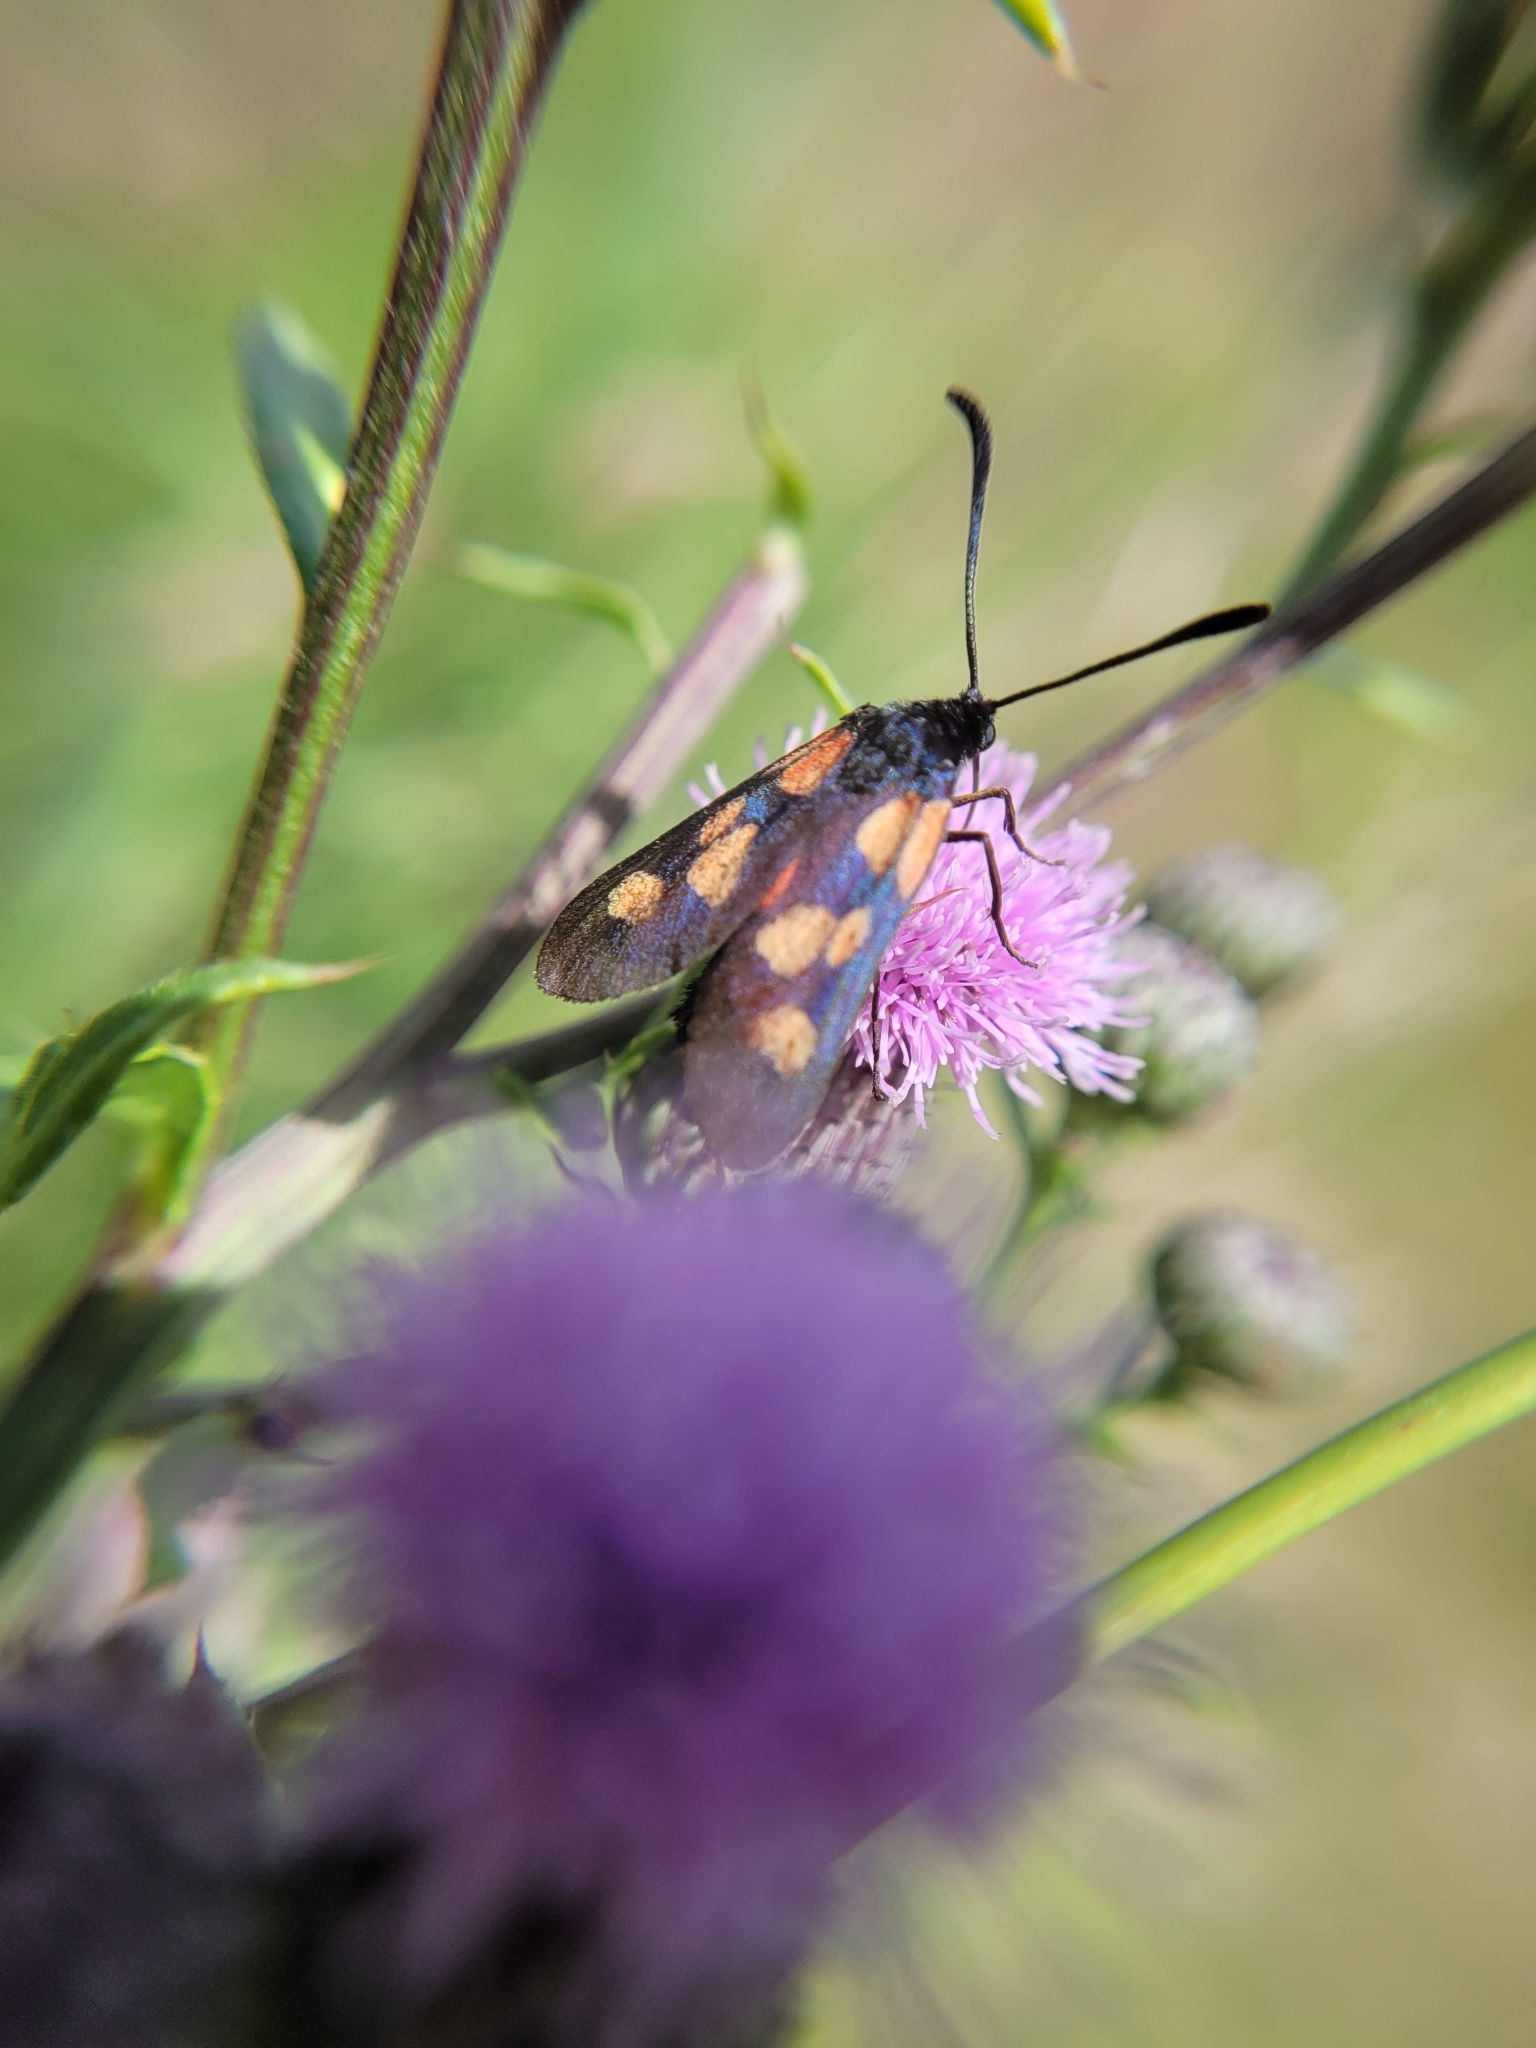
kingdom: Animalia
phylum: Arthropoda
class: Insecta
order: Lepidoptera
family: Zygaenidae
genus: Zygaena
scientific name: Zygaena viciae
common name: New forest burnet
